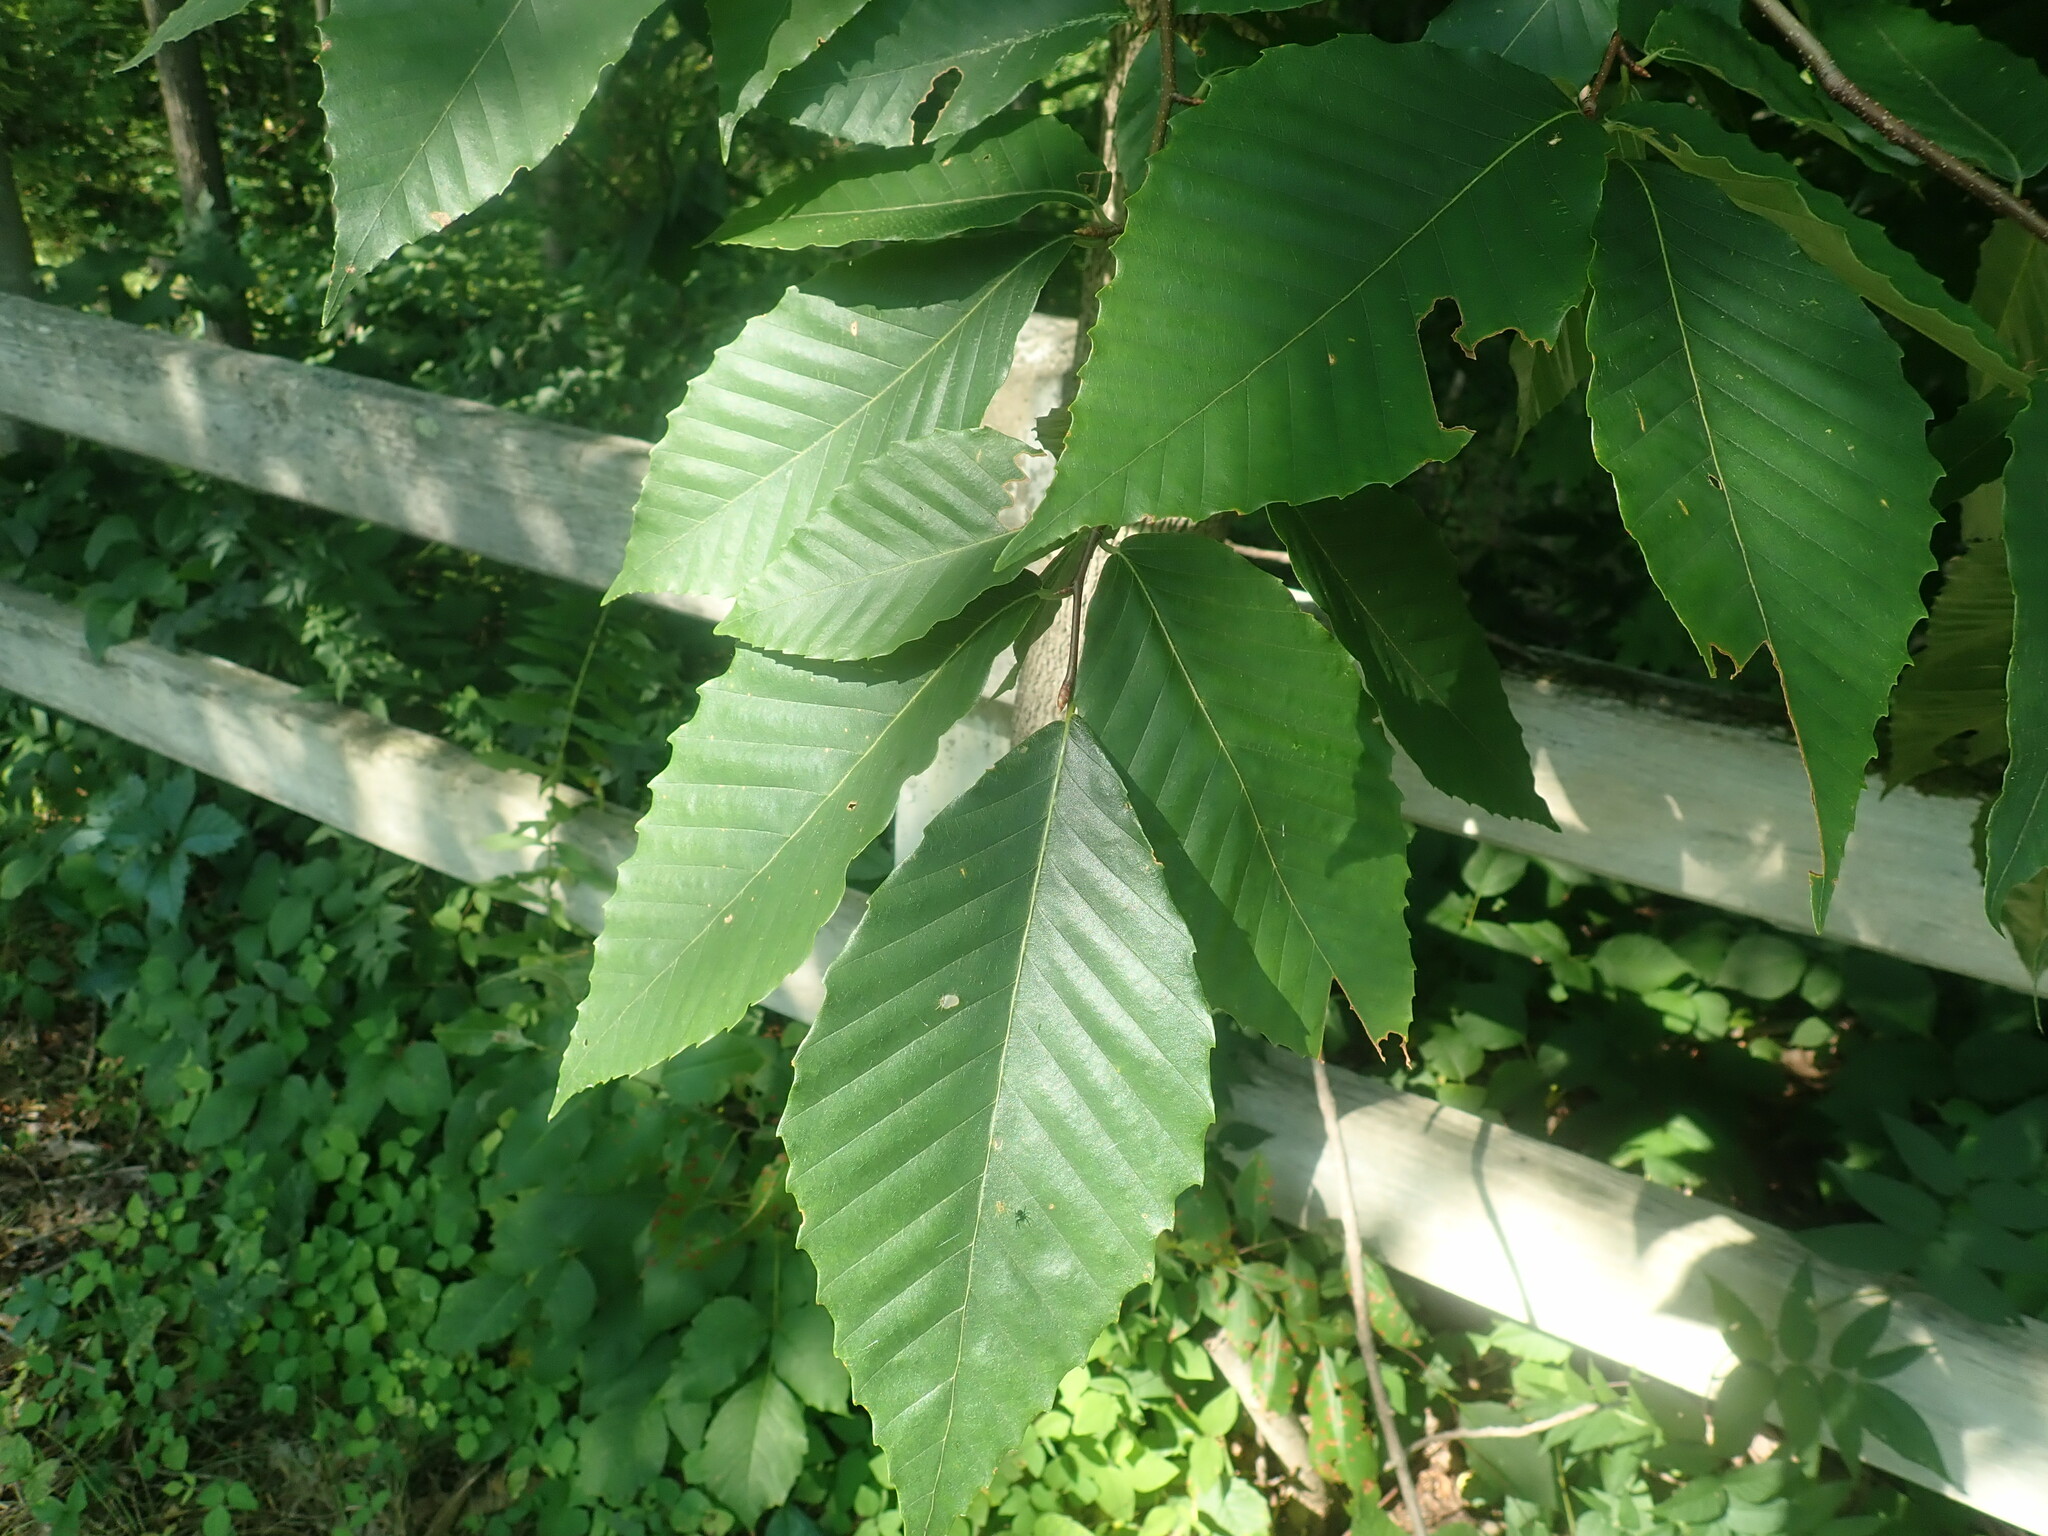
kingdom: Plantae
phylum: Tracheophyta
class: Magnoliopsida
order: Fagales
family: Fagaceae
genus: Fagus
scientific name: Fagus grandifolia
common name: American beech
